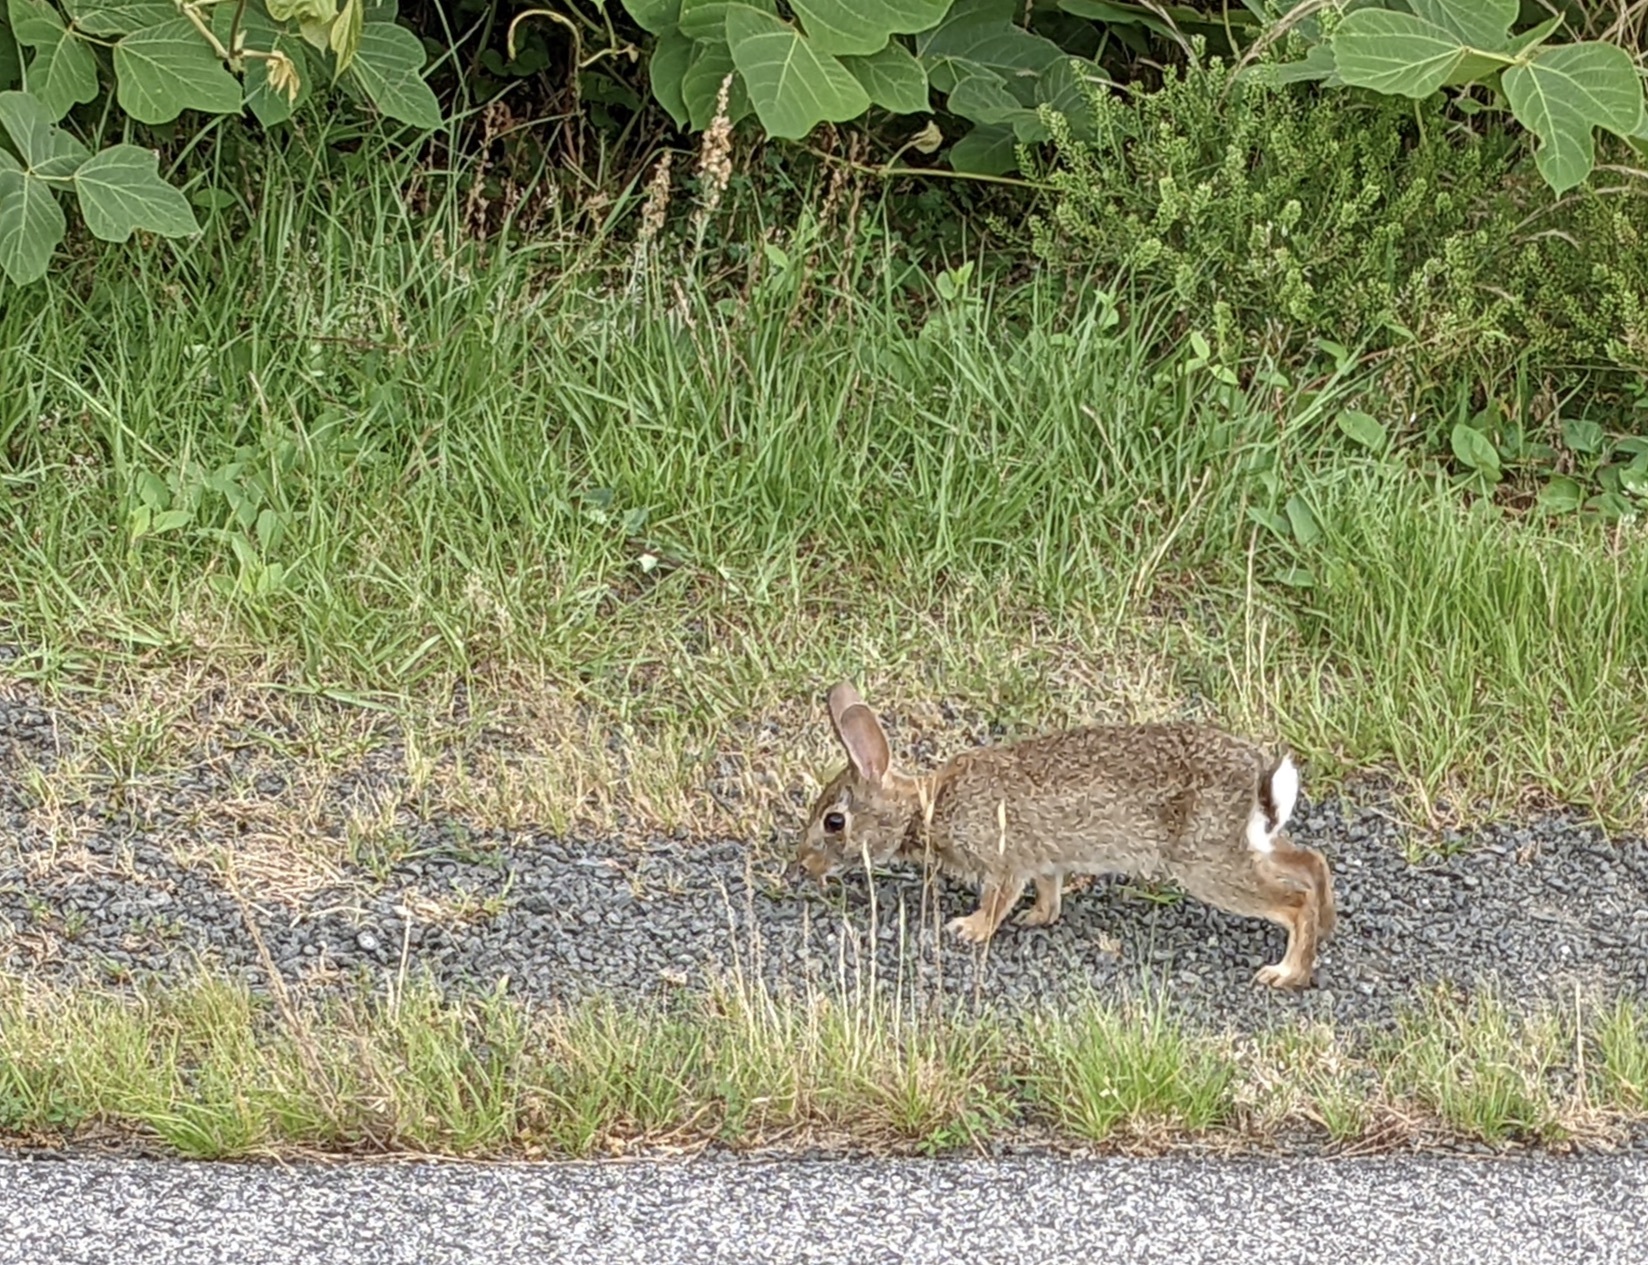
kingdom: Animalia
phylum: Chordata
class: Mammalia
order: Lagomorpha
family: Leporidae
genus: Sylvilagus
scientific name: Sylvilagus floridanus
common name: Eastern cottontail
